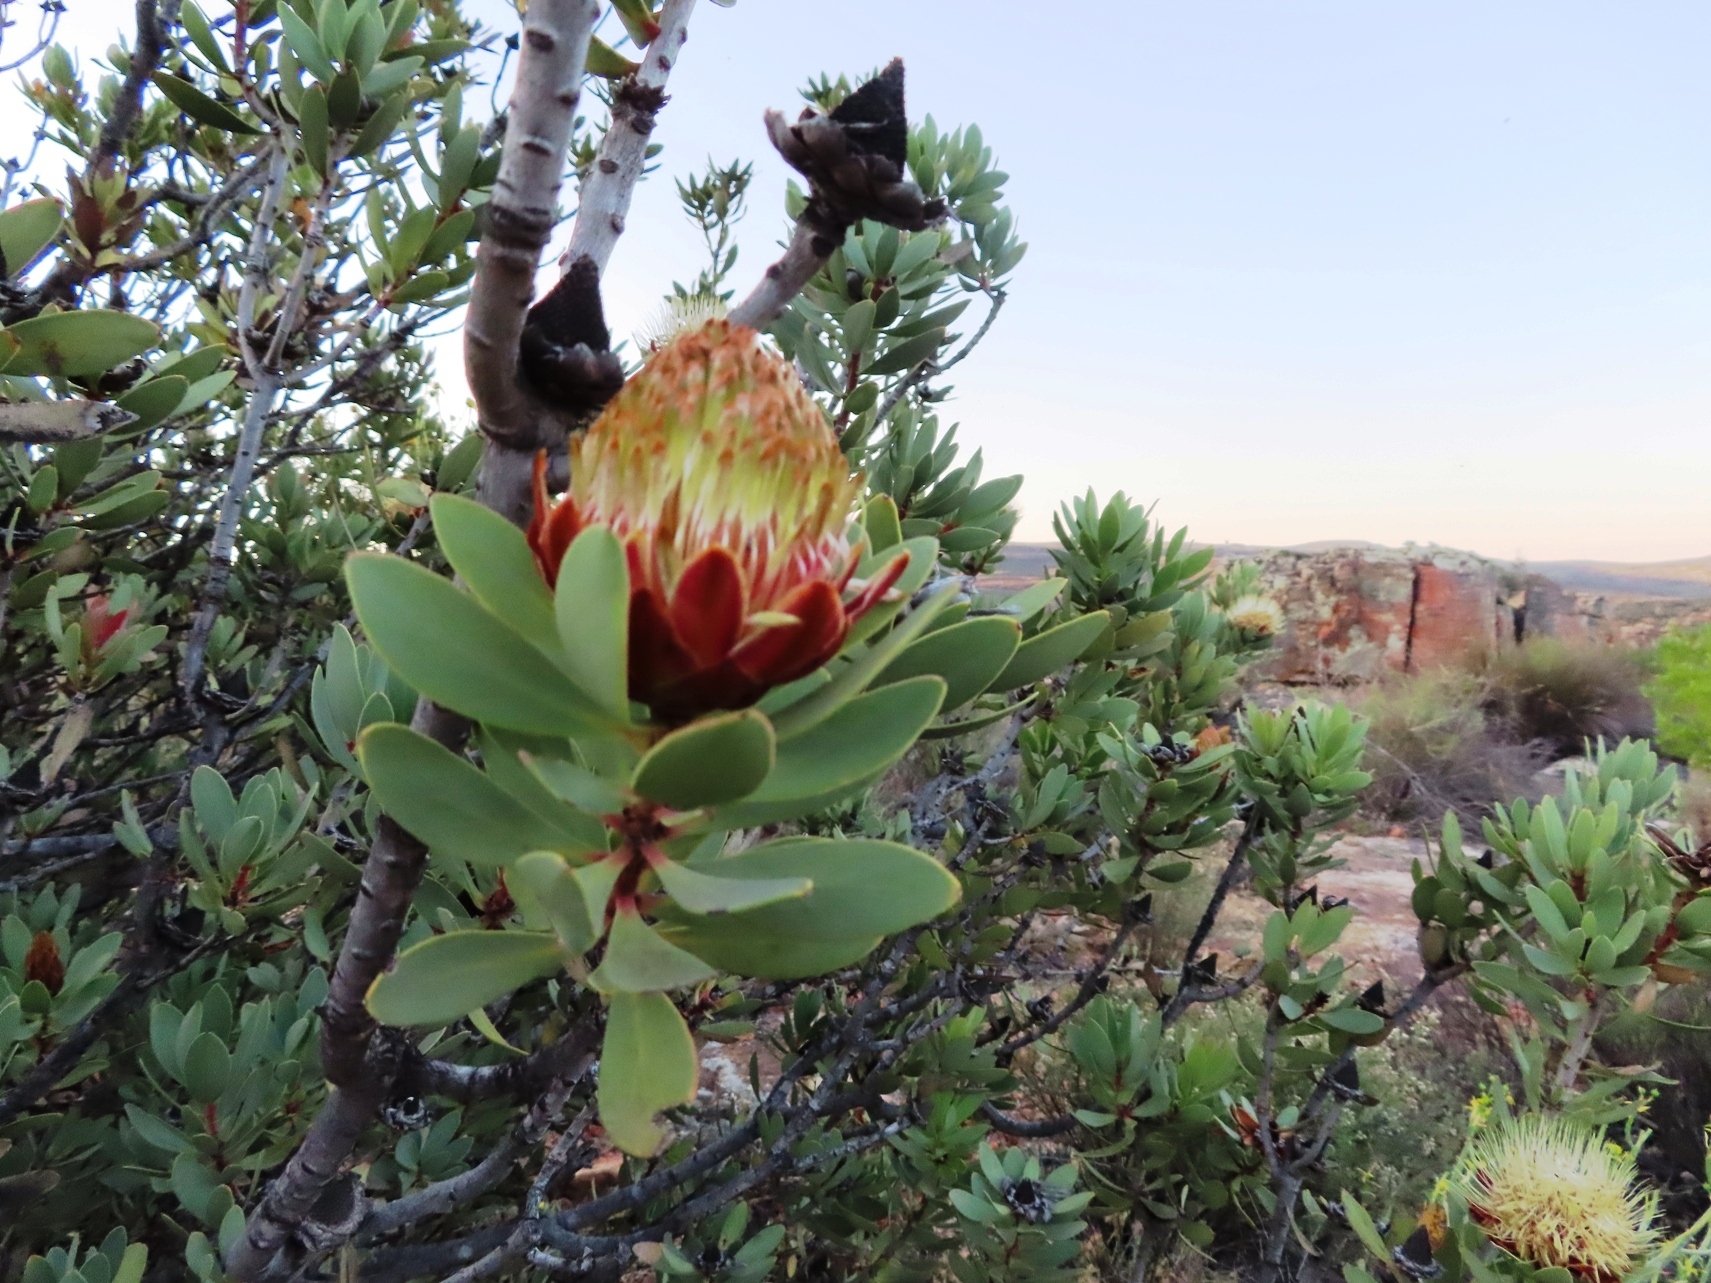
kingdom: Plantae
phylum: Tracheophyta
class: Magnoliopsida
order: Proteales
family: Proteaceae
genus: Protea
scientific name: Protea glabra
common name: Chestnut sugarbush
